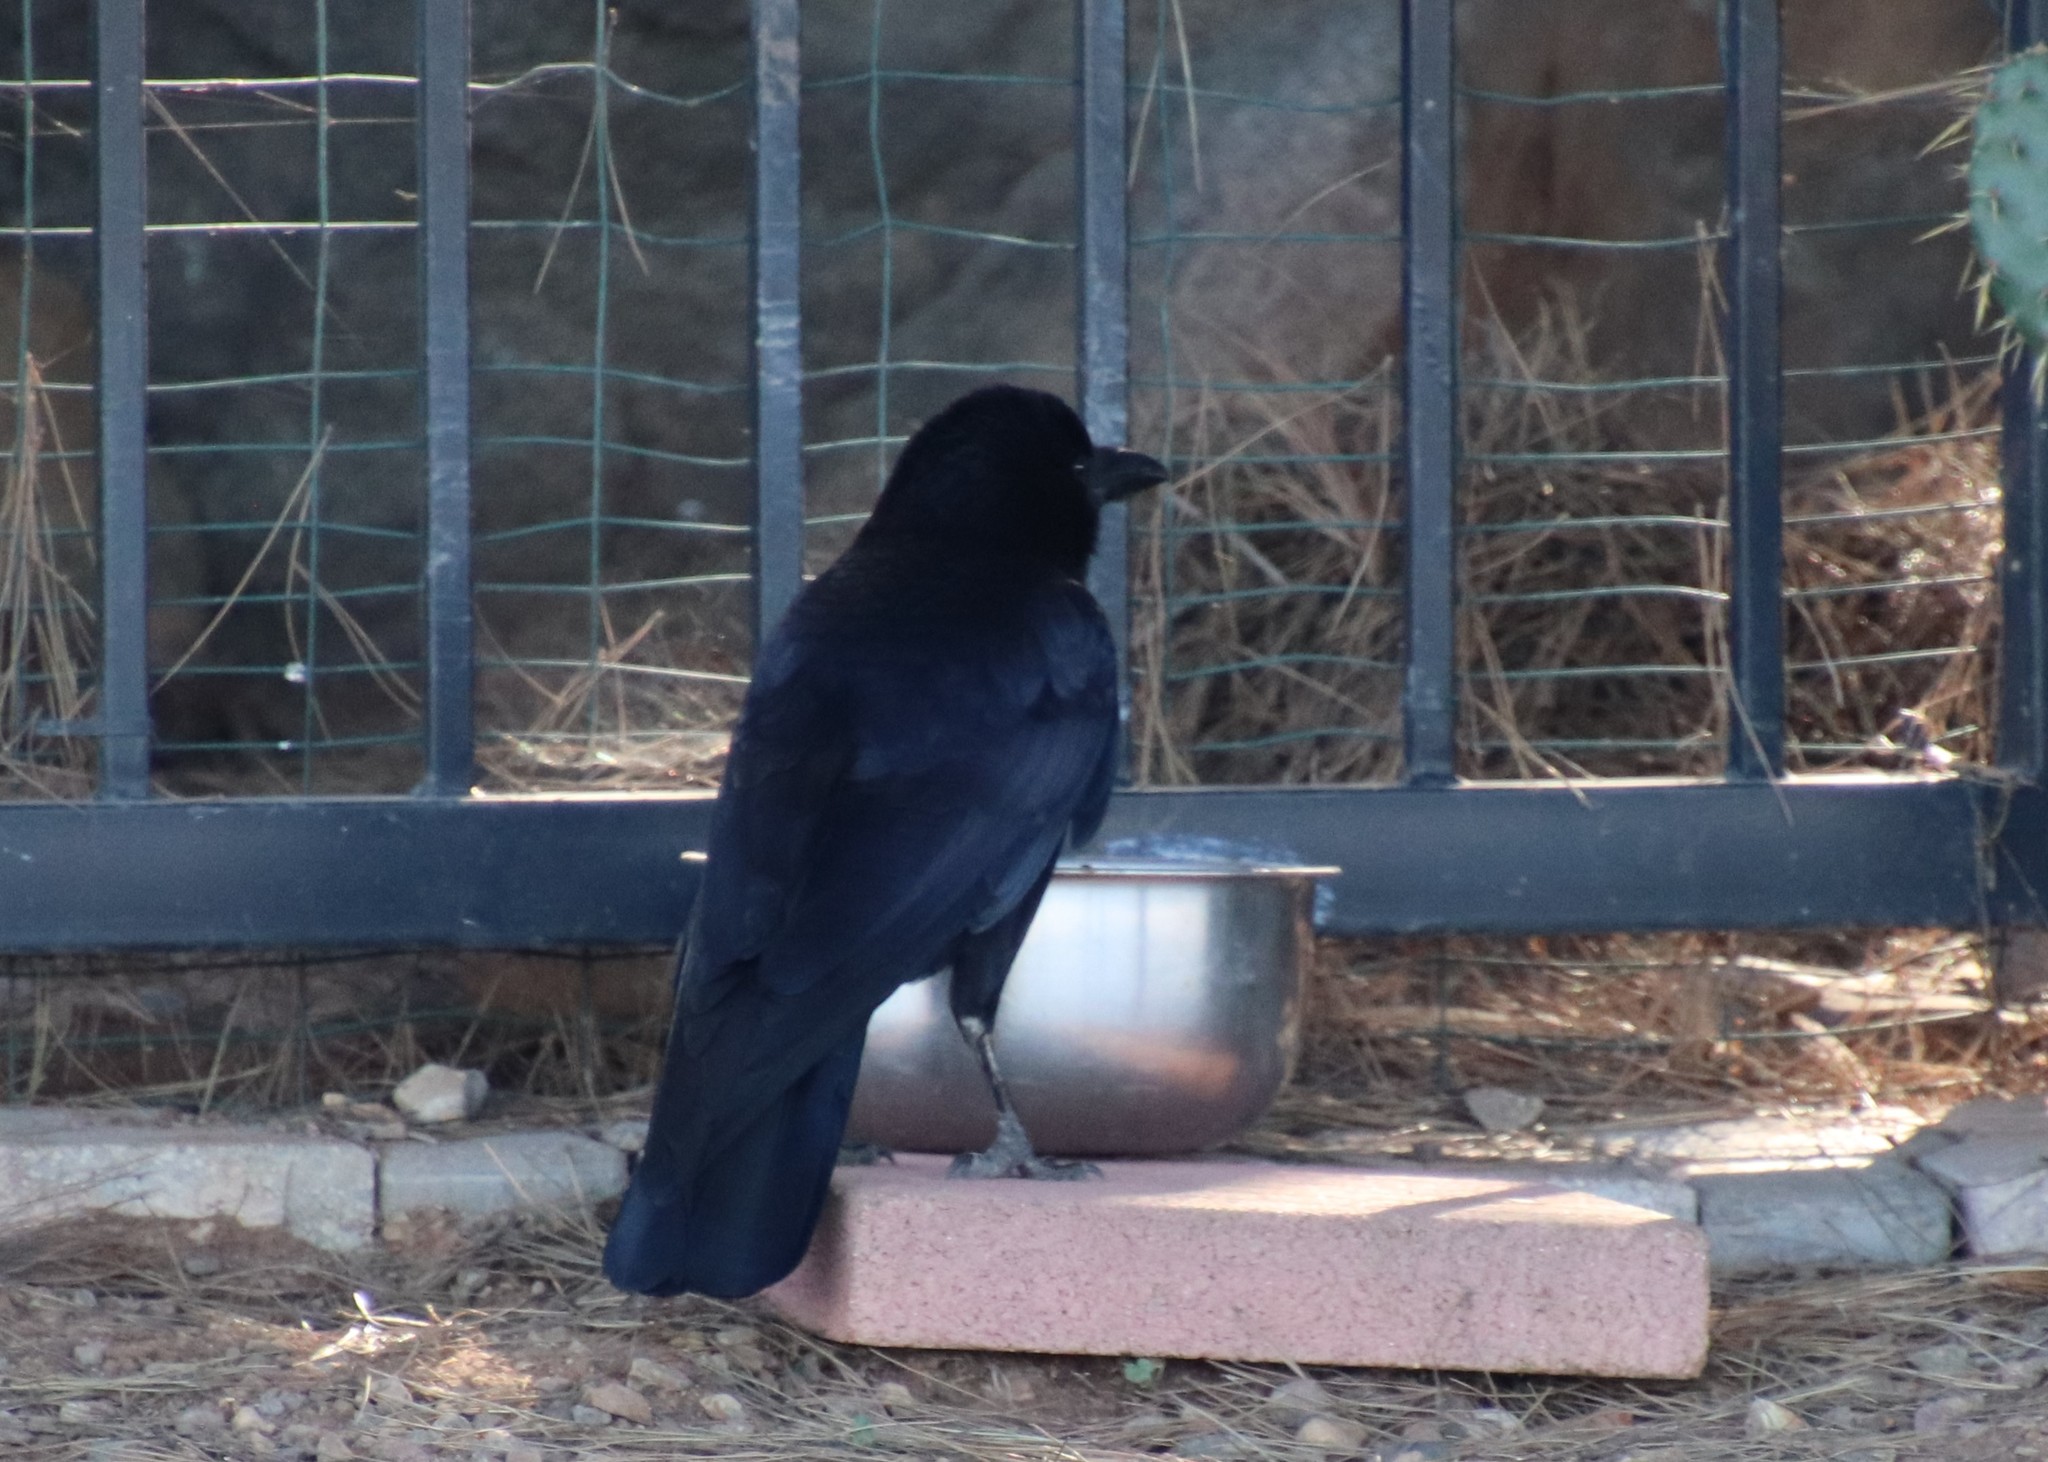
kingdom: Animalia
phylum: Chordata
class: Aves
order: Passeriformes
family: Corvidae
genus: Corvus
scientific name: Corvus brachyrhynchos
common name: American crow
